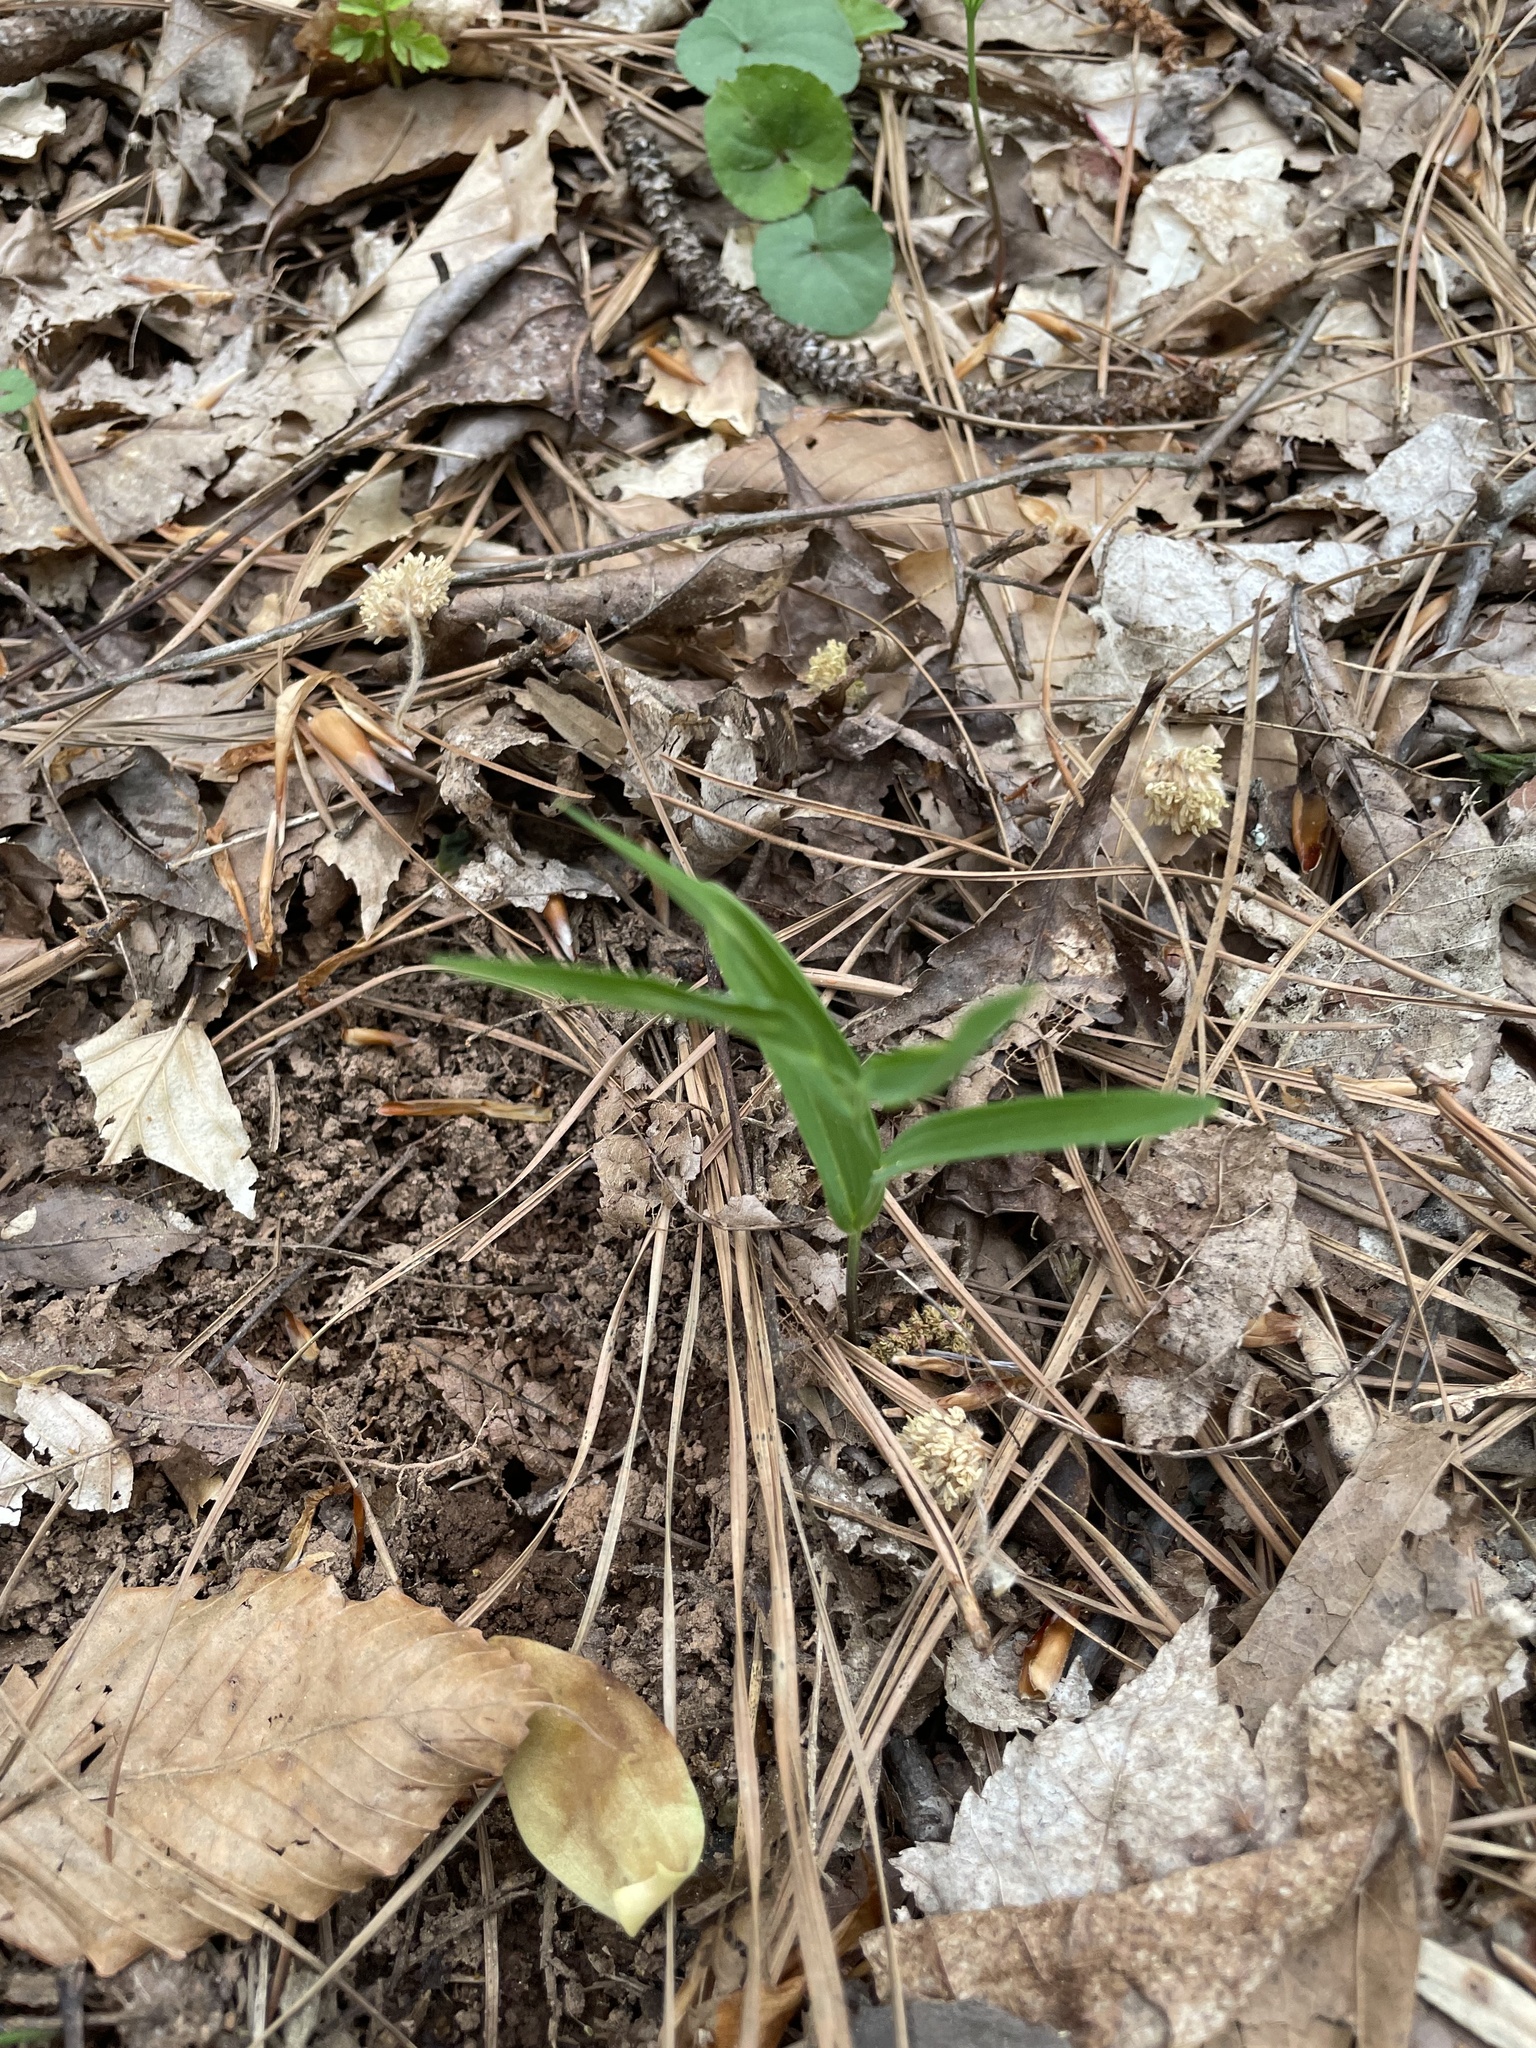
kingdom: Plantae
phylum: Tracheophyta
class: Liliopsida
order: Asparagales
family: Asparagaceae
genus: Polygonatum
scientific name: Polygonatum biflorum
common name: American solomon's-seal
